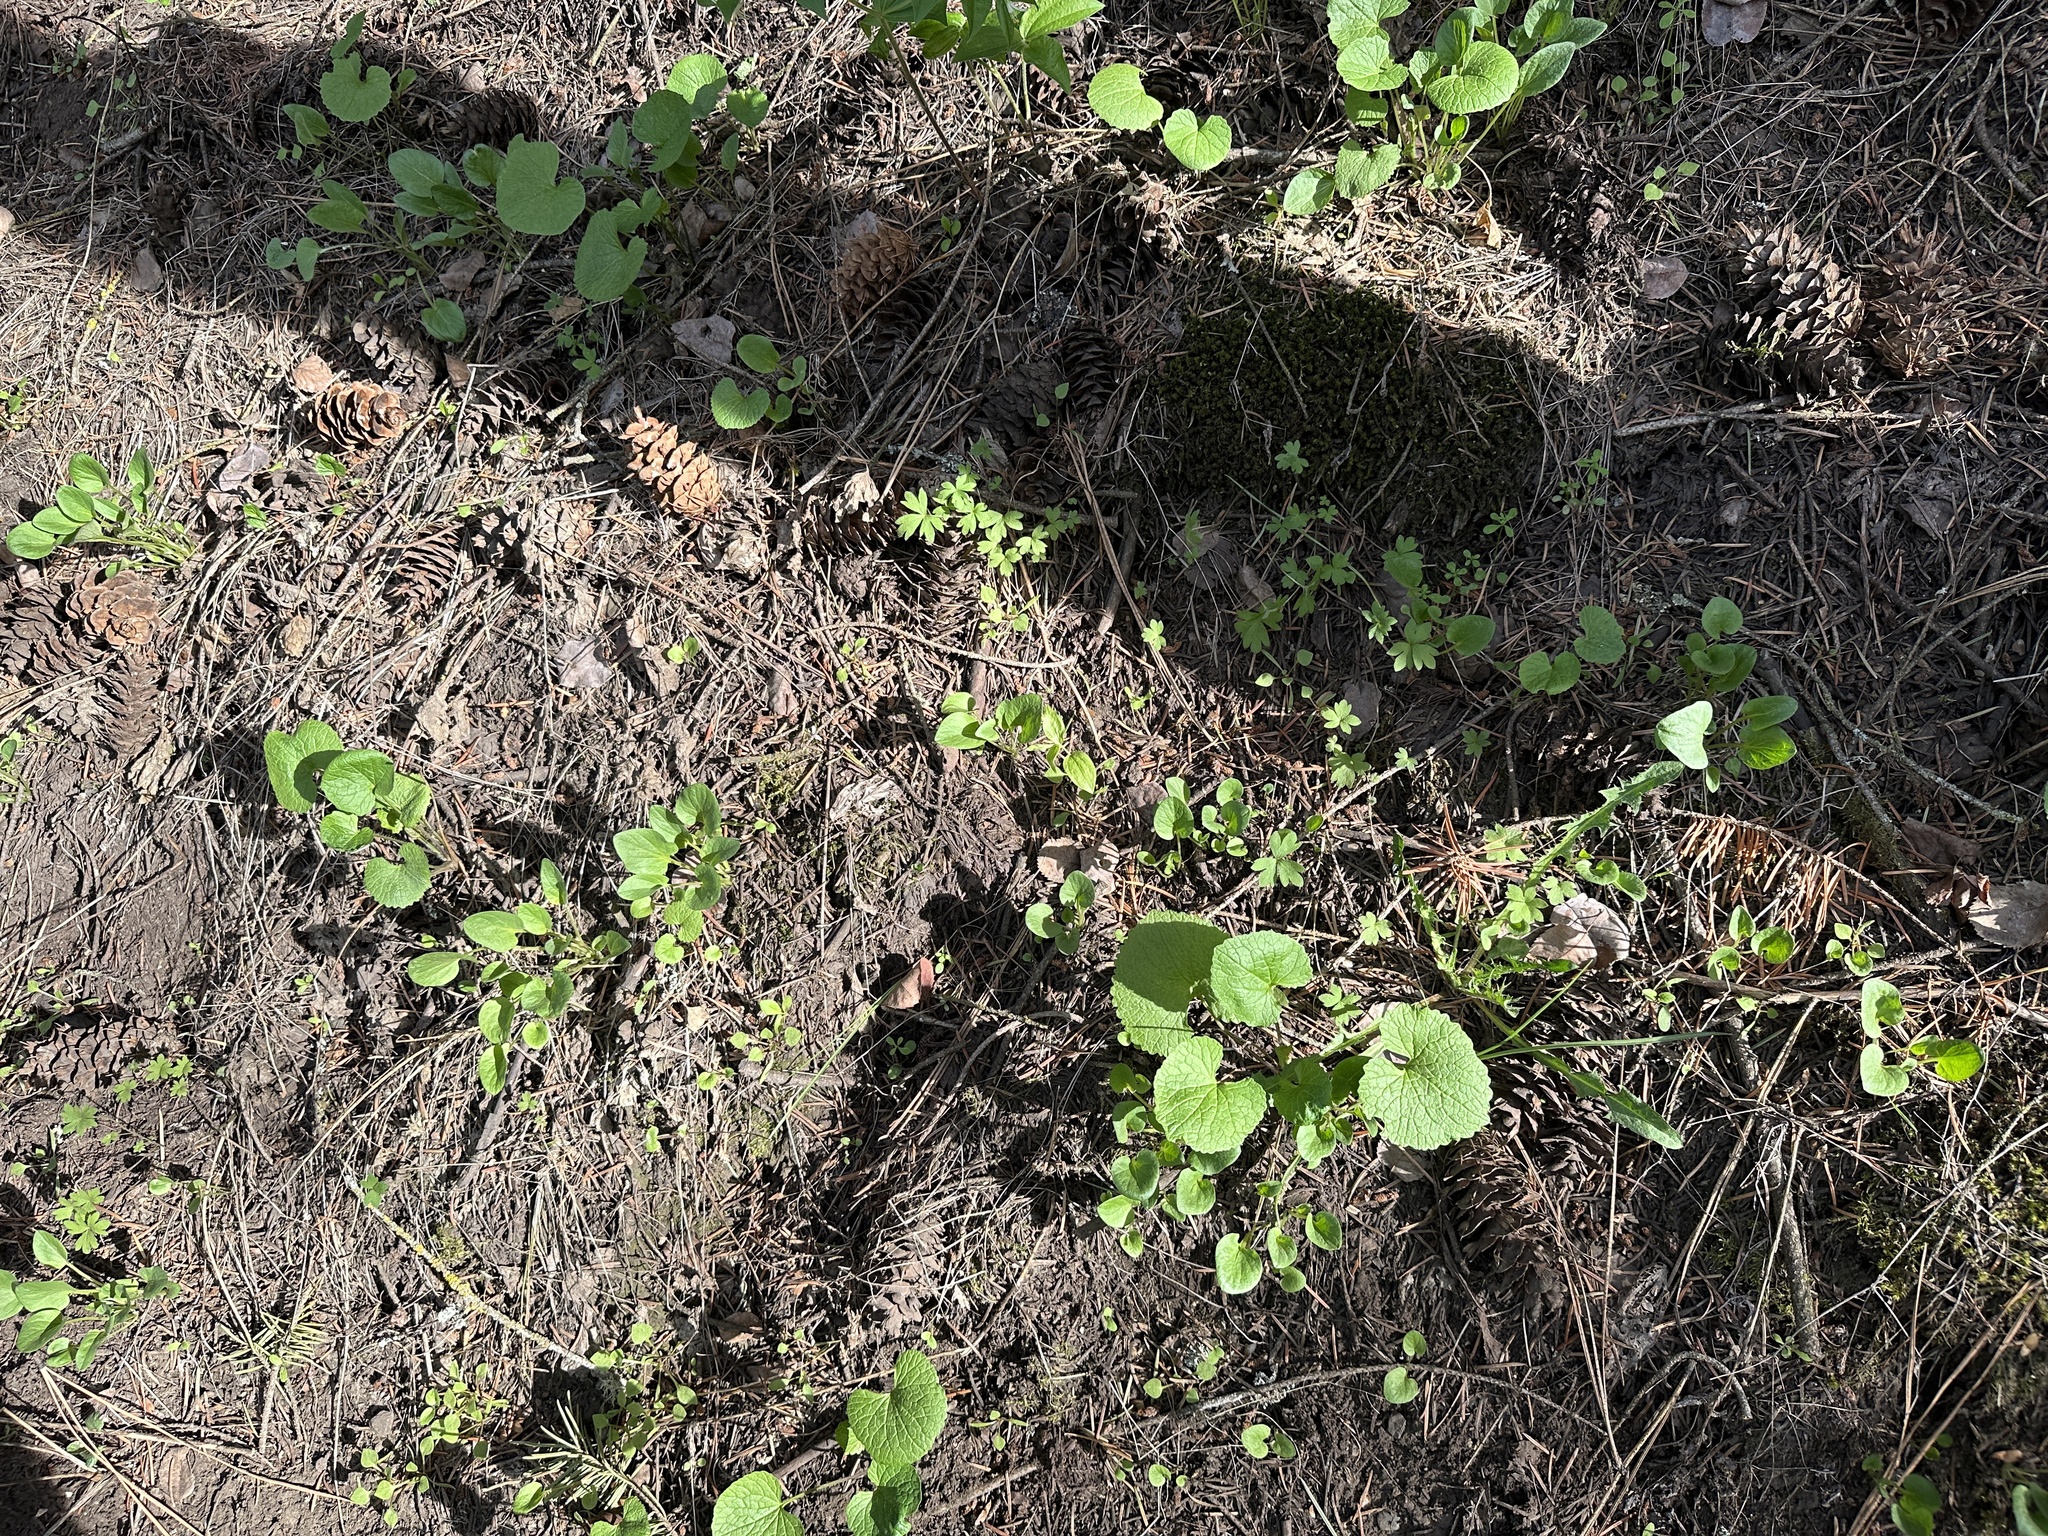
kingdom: Plantae
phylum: Tracheophyta
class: Magnoliopsida
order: Brassicales
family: Brassicaceae
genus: Alliaria
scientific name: Alliaria petiolata
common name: Garlic mustard
